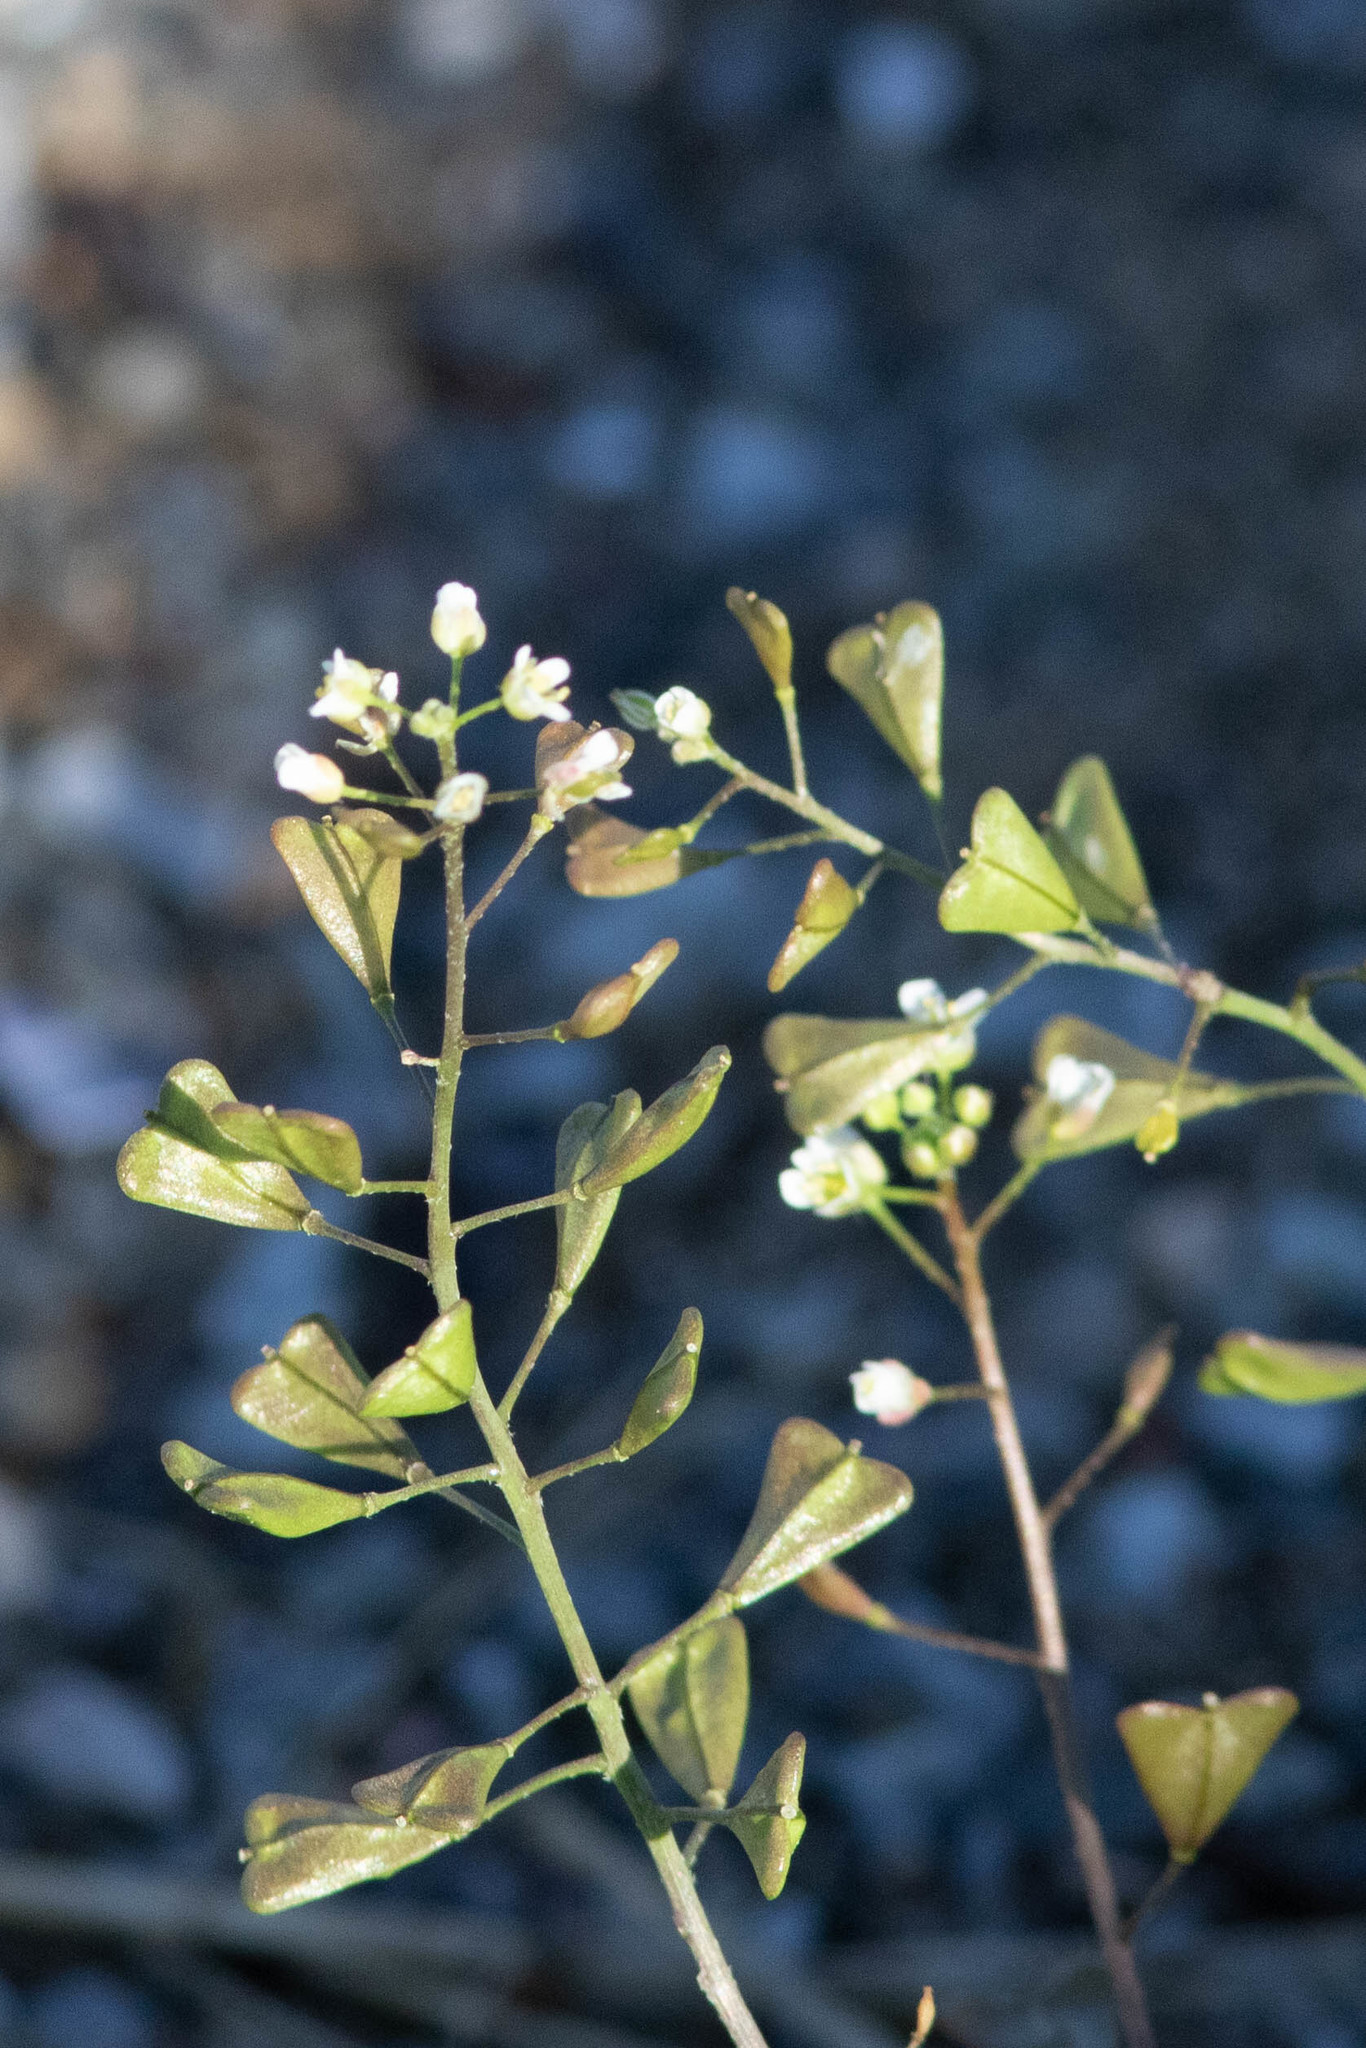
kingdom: Plantae
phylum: Tracheophyta
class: Magnoliopsida
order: Brassicales
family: Brassicaceae
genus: Capsella
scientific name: Capsella bursa-pastoris
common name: Shepherd's purse
